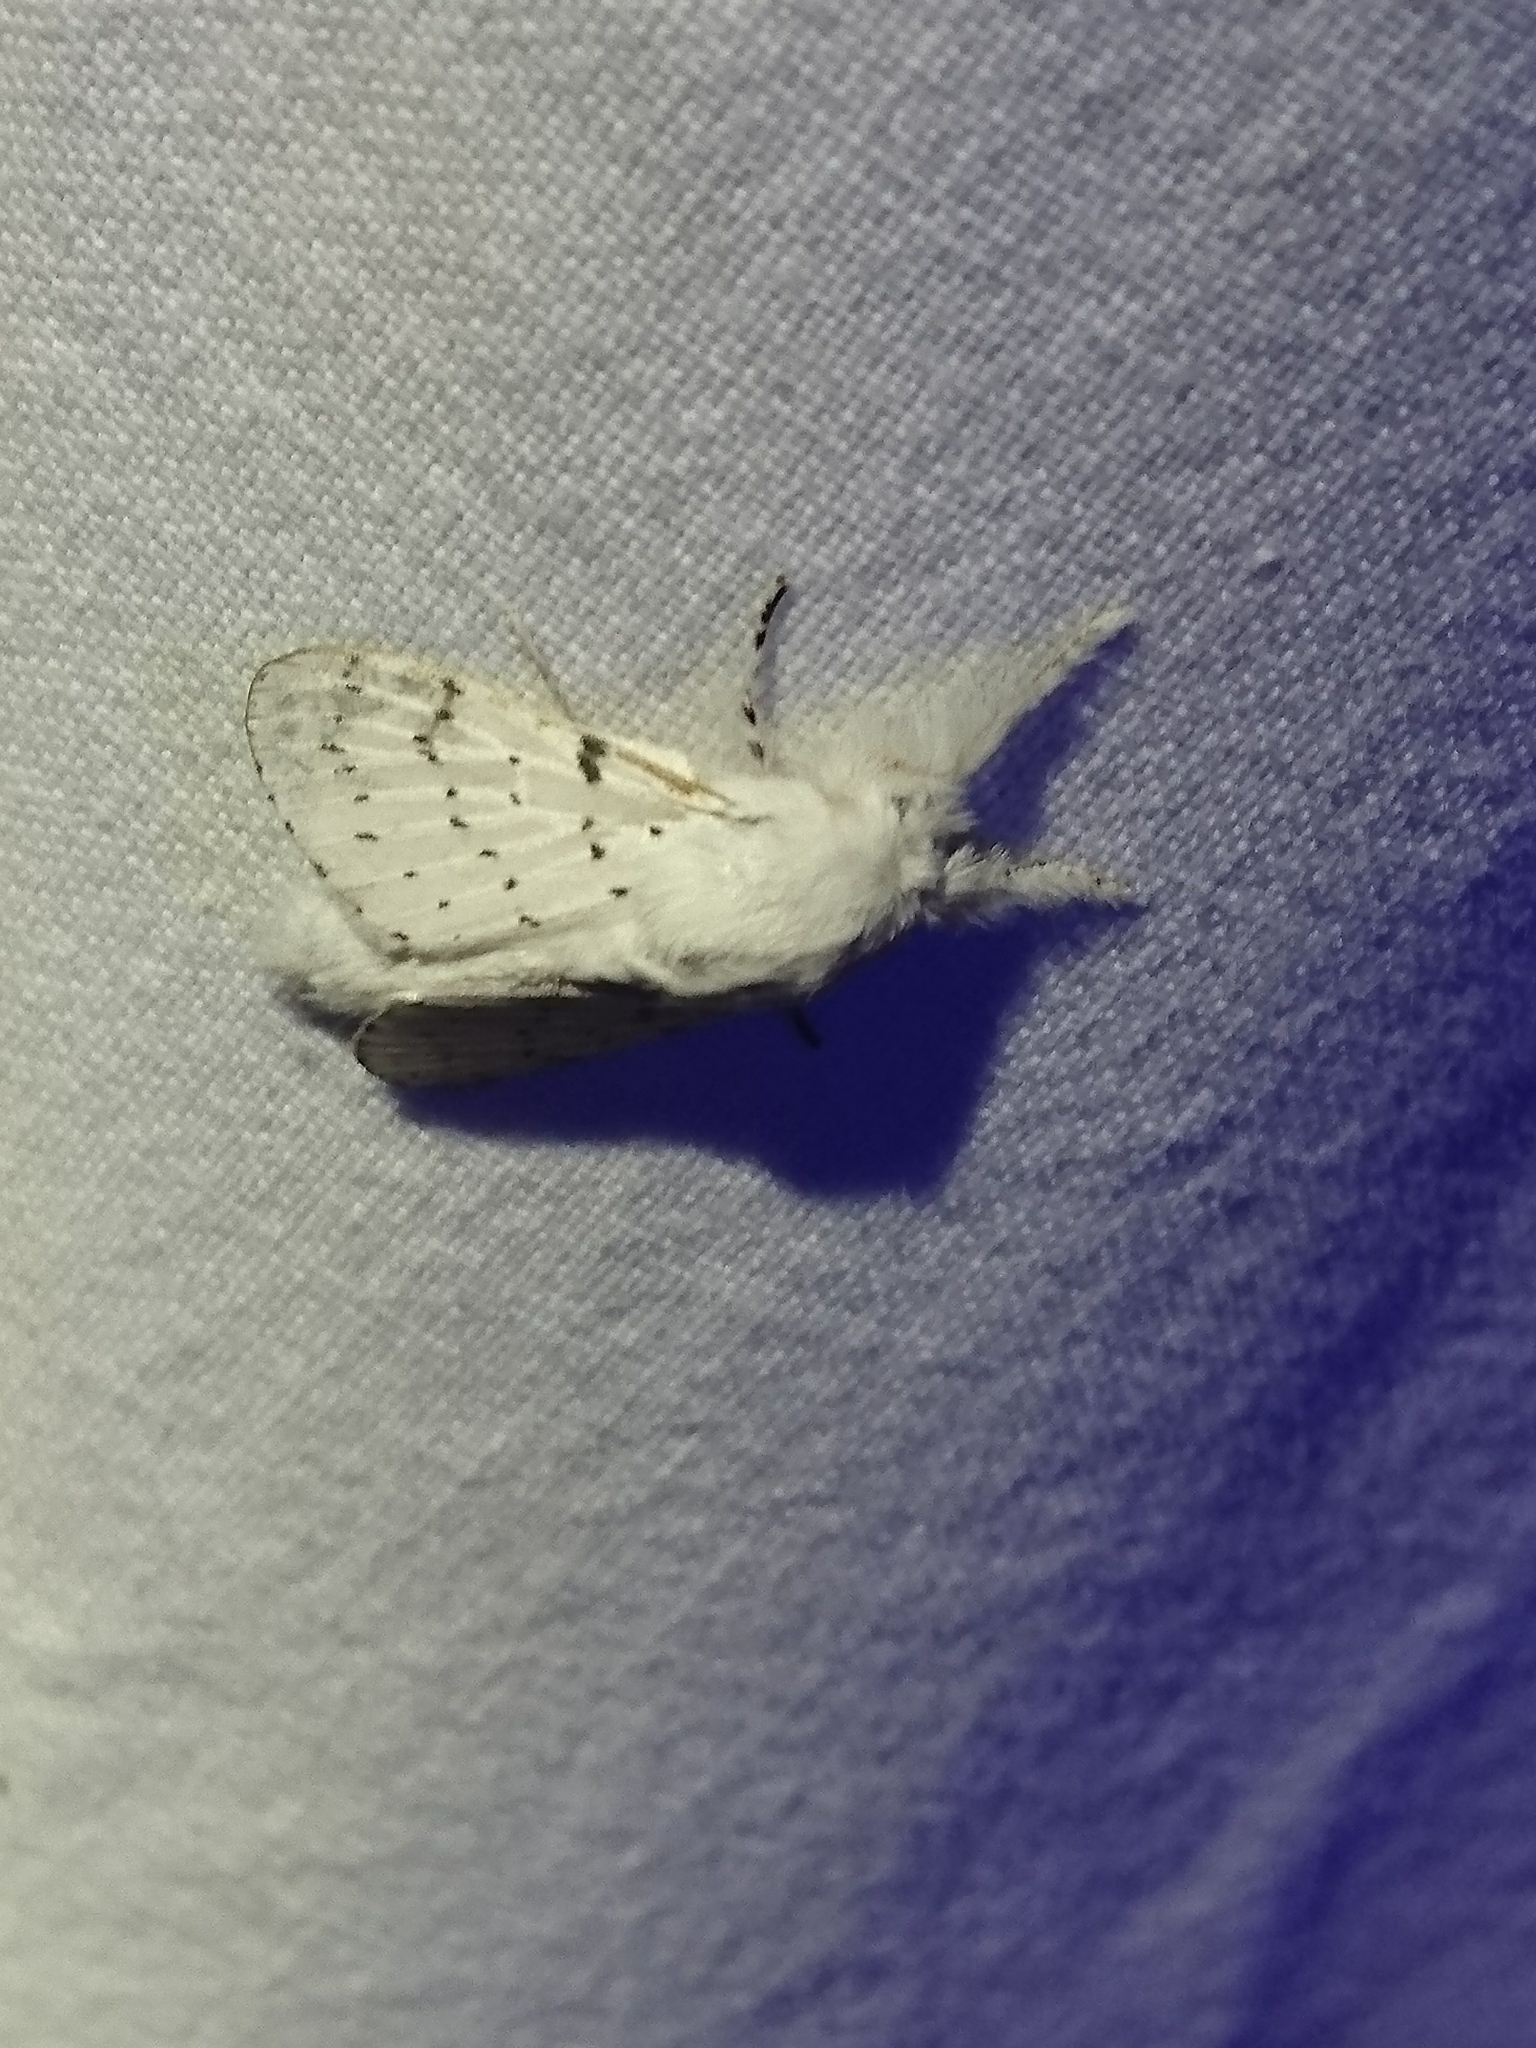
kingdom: Animalia
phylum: Arthropoda
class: Insecta
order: Lepidoptera
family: Lasiocampidae
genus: Artace
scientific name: Artace cribrarius
